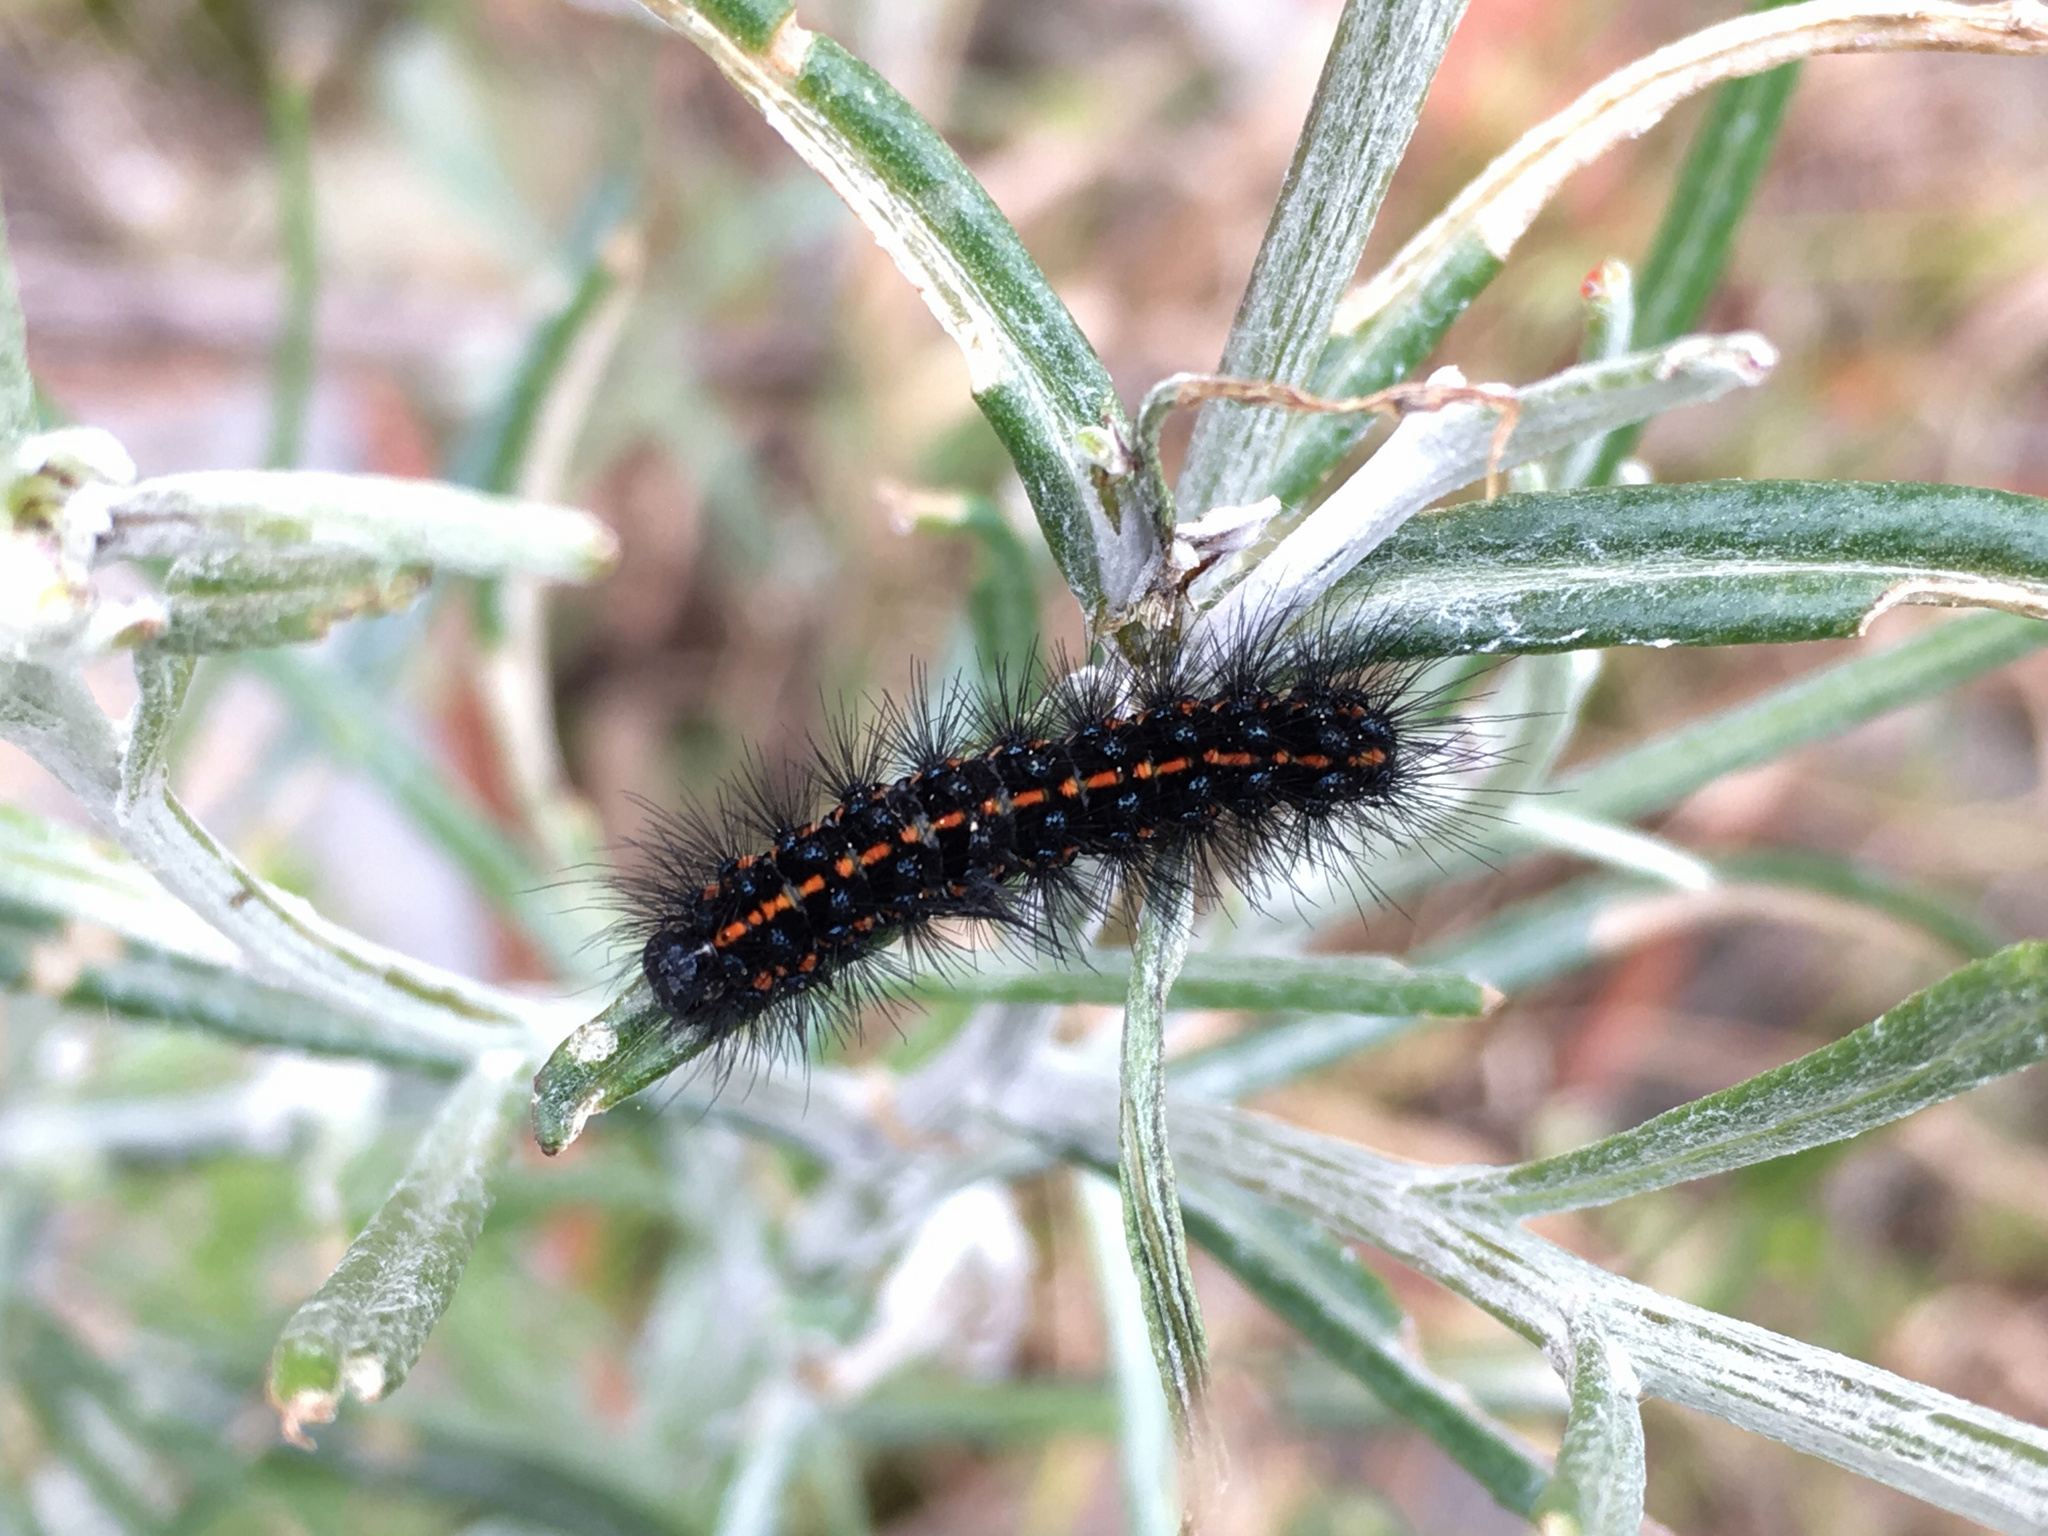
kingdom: Animalia
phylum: Arthropoda
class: Insecta
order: Lepidoptera
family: Erebidae
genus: Nyctemera
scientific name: Nyctemera annulatum
